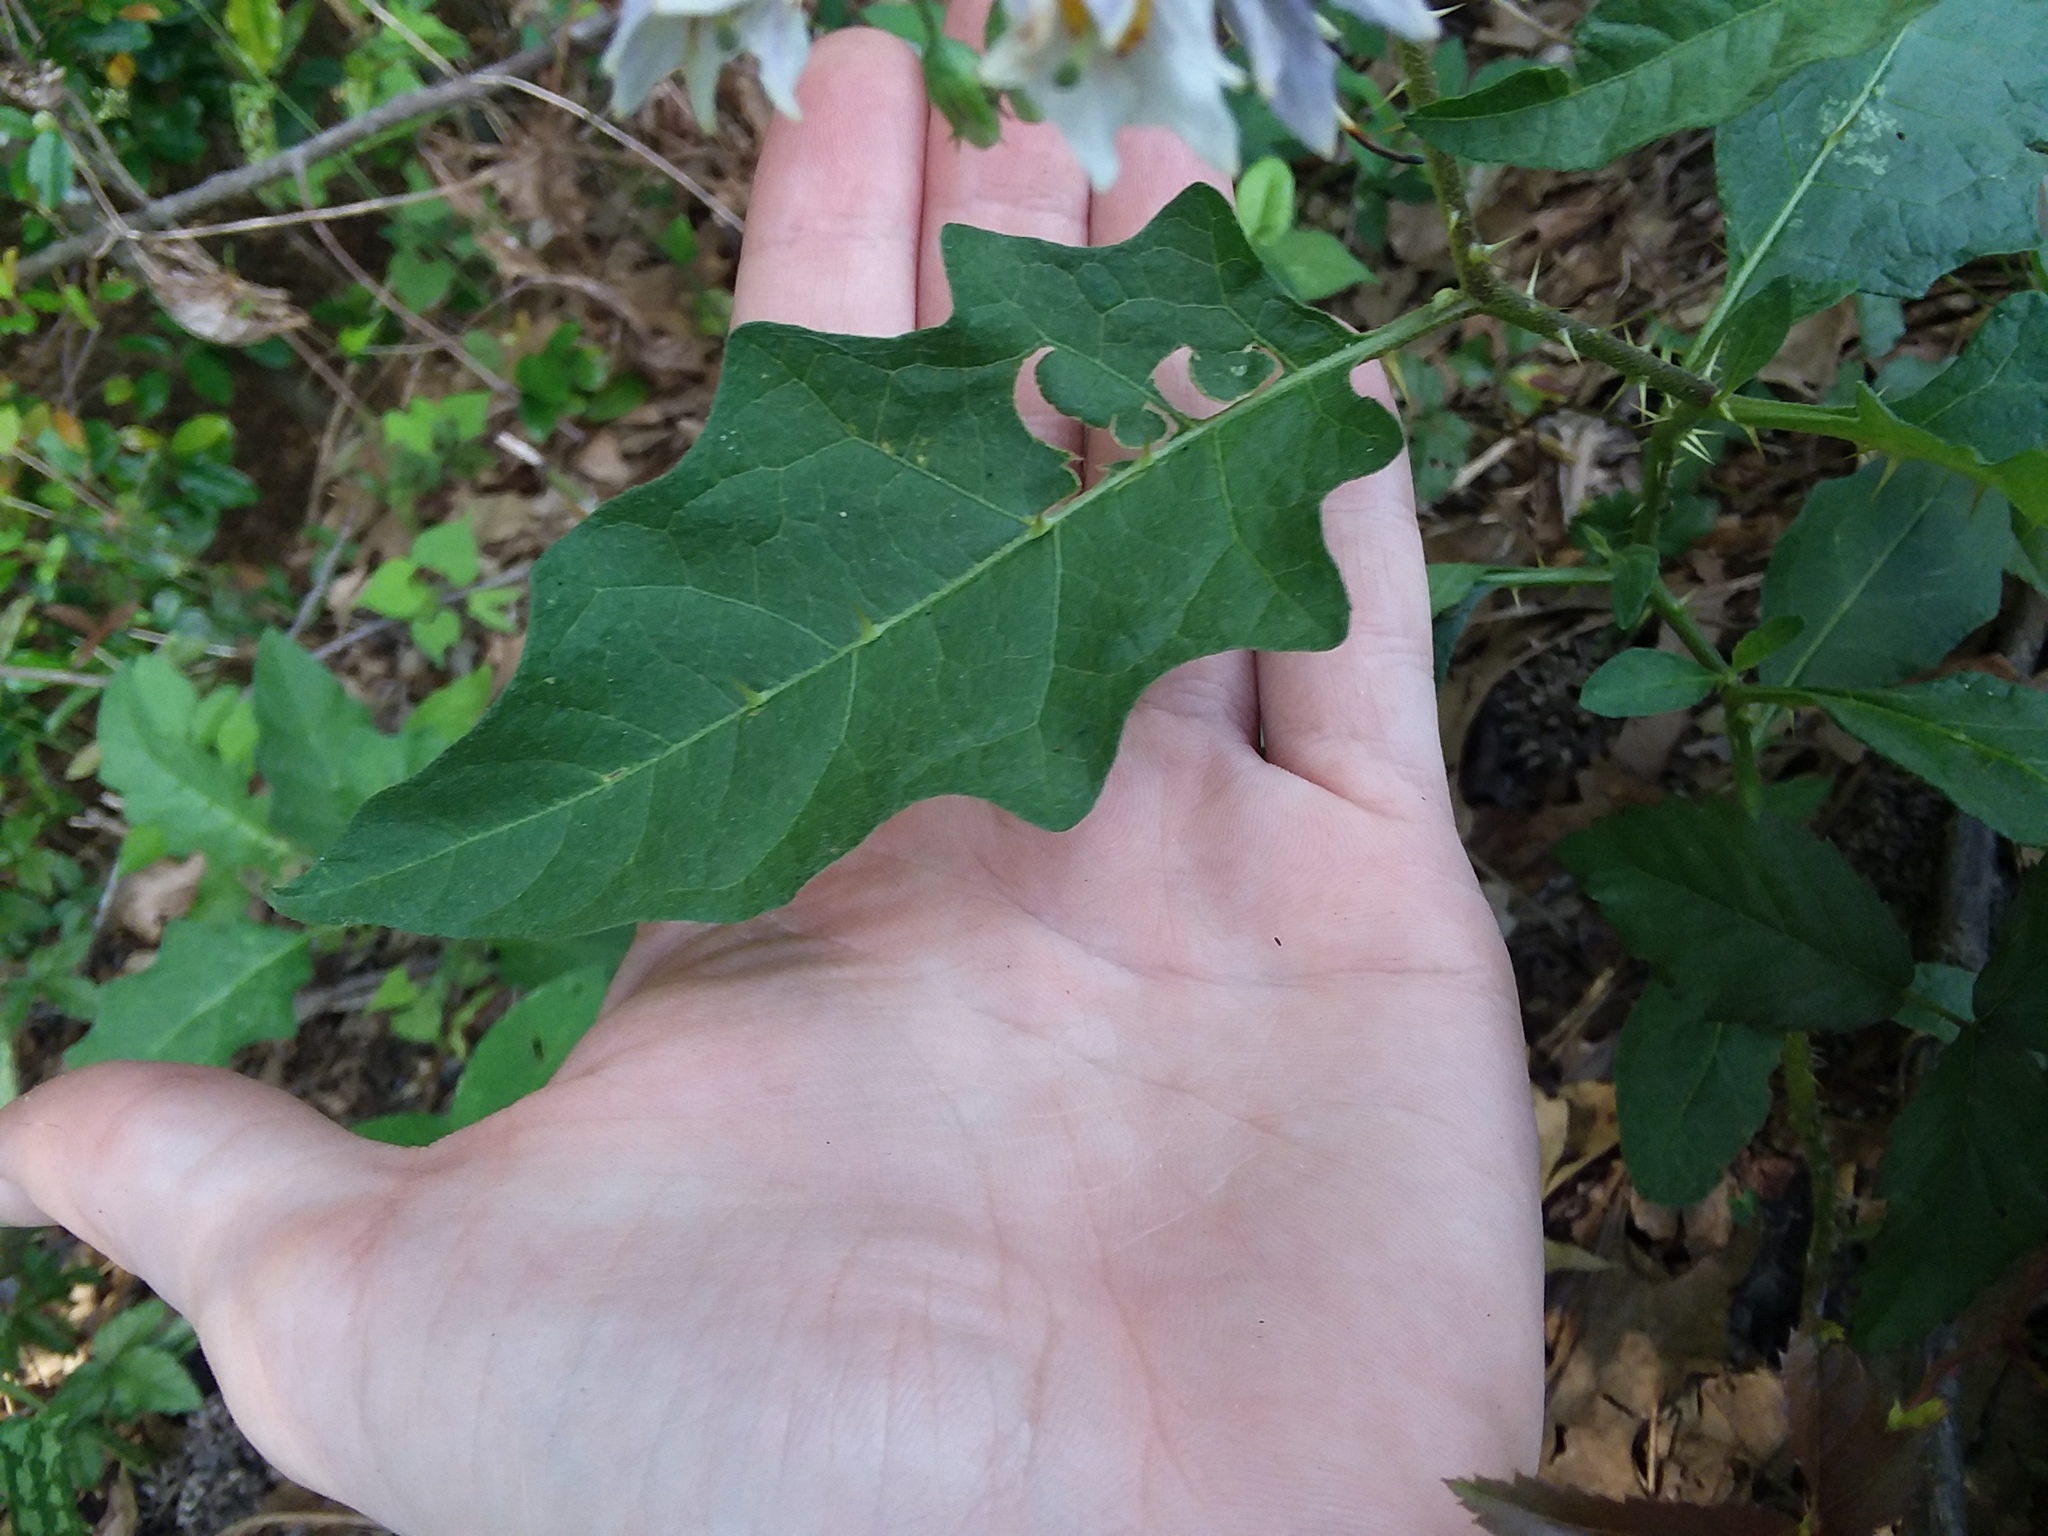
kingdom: Plantae
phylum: Tracheophyta
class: Magnoliopsida
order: Solanales
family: Solanaceae
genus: Solanum
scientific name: Solanum carolinense
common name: Horse-nettle
